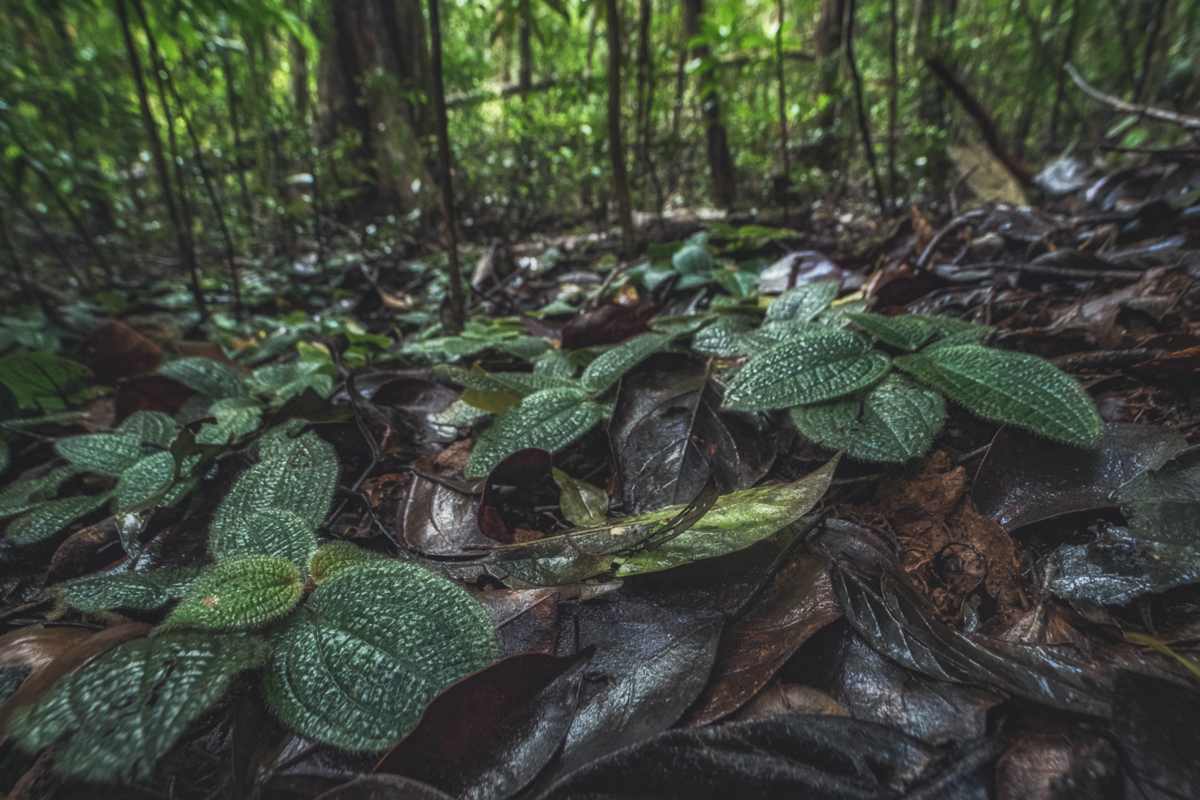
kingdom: Plantae
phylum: Tracheophyta
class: Magnoliopsida
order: Myrtales
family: Melastomataceae
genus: Nephoanthus
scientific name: Nephoanthus prostratus
